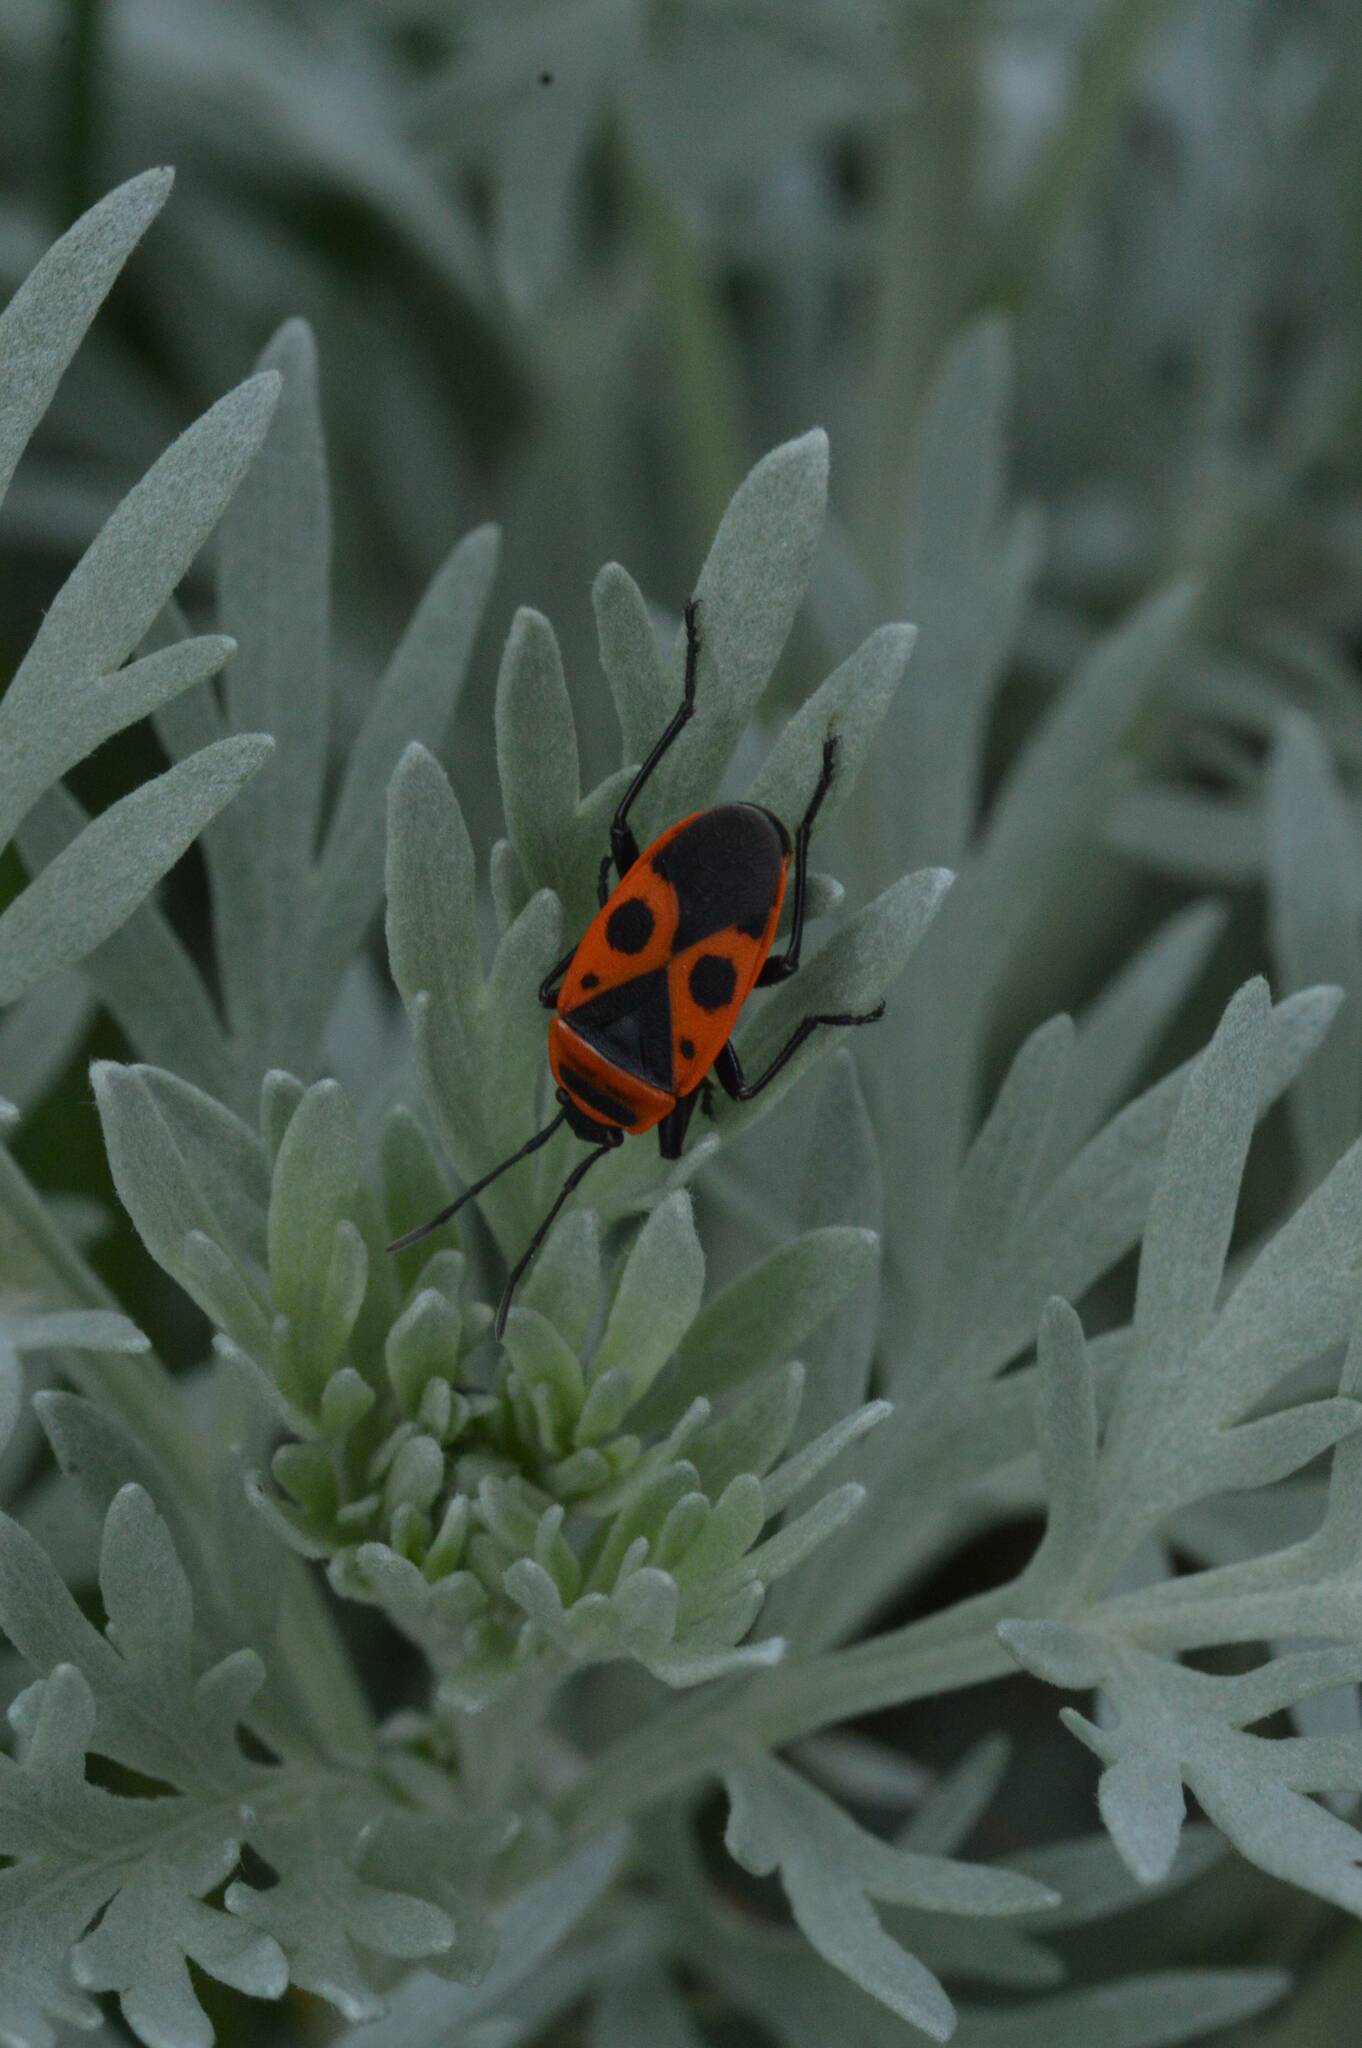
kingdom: Animalia
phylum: Arthropoda
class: Insecta
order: Hemiptera
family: Pyrrhocoridae
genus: Pyrrhocoris
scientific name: Pyrrhocoris apterus
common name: Firebug
